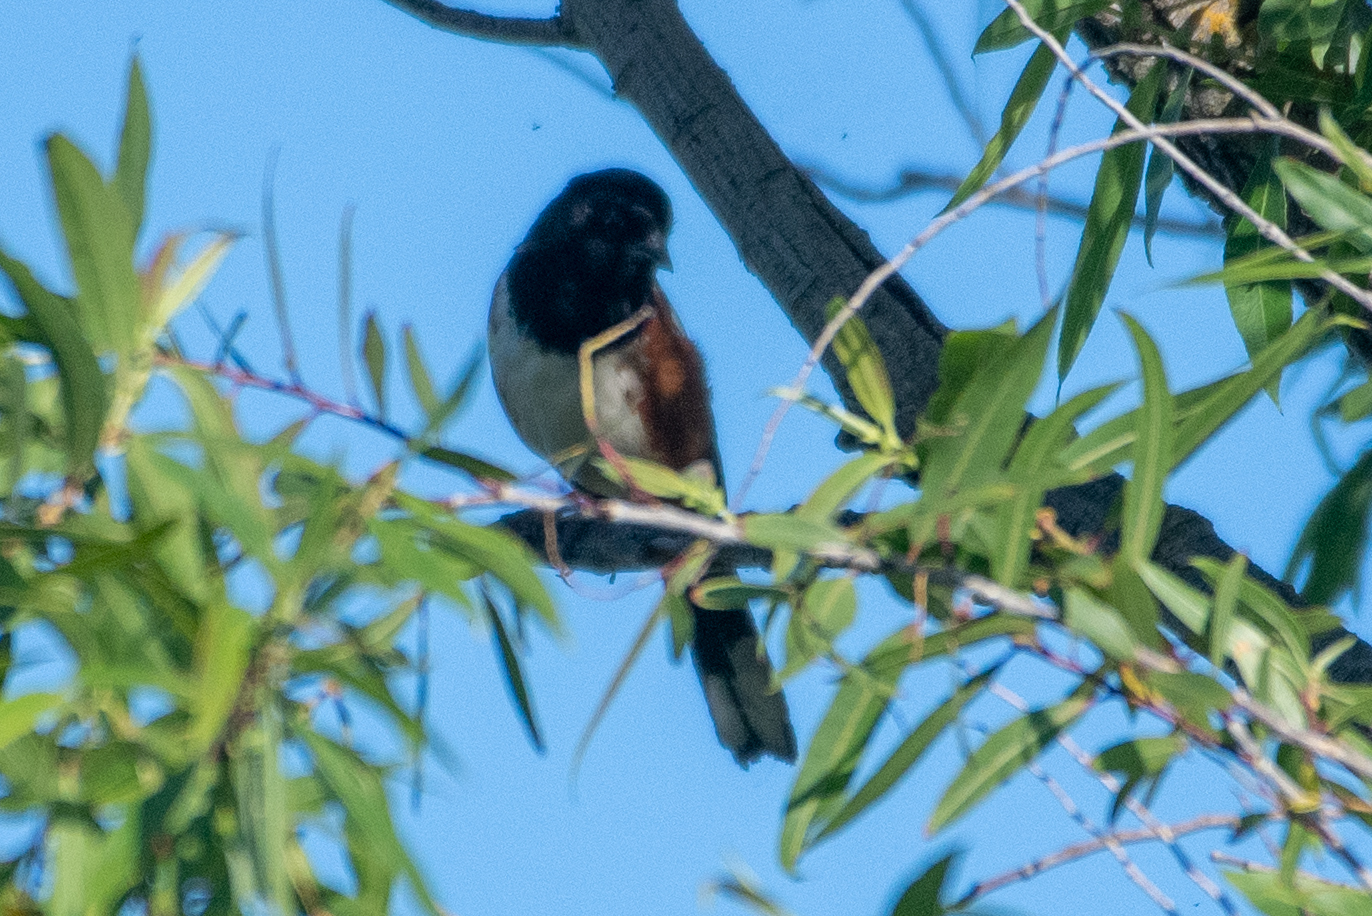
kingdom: Animalia
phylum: Chordata
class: Aves
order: Passeriformes
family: Passerellidae
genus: Pipilo
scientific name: Pipilo maculatus
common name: Spotted towhee
